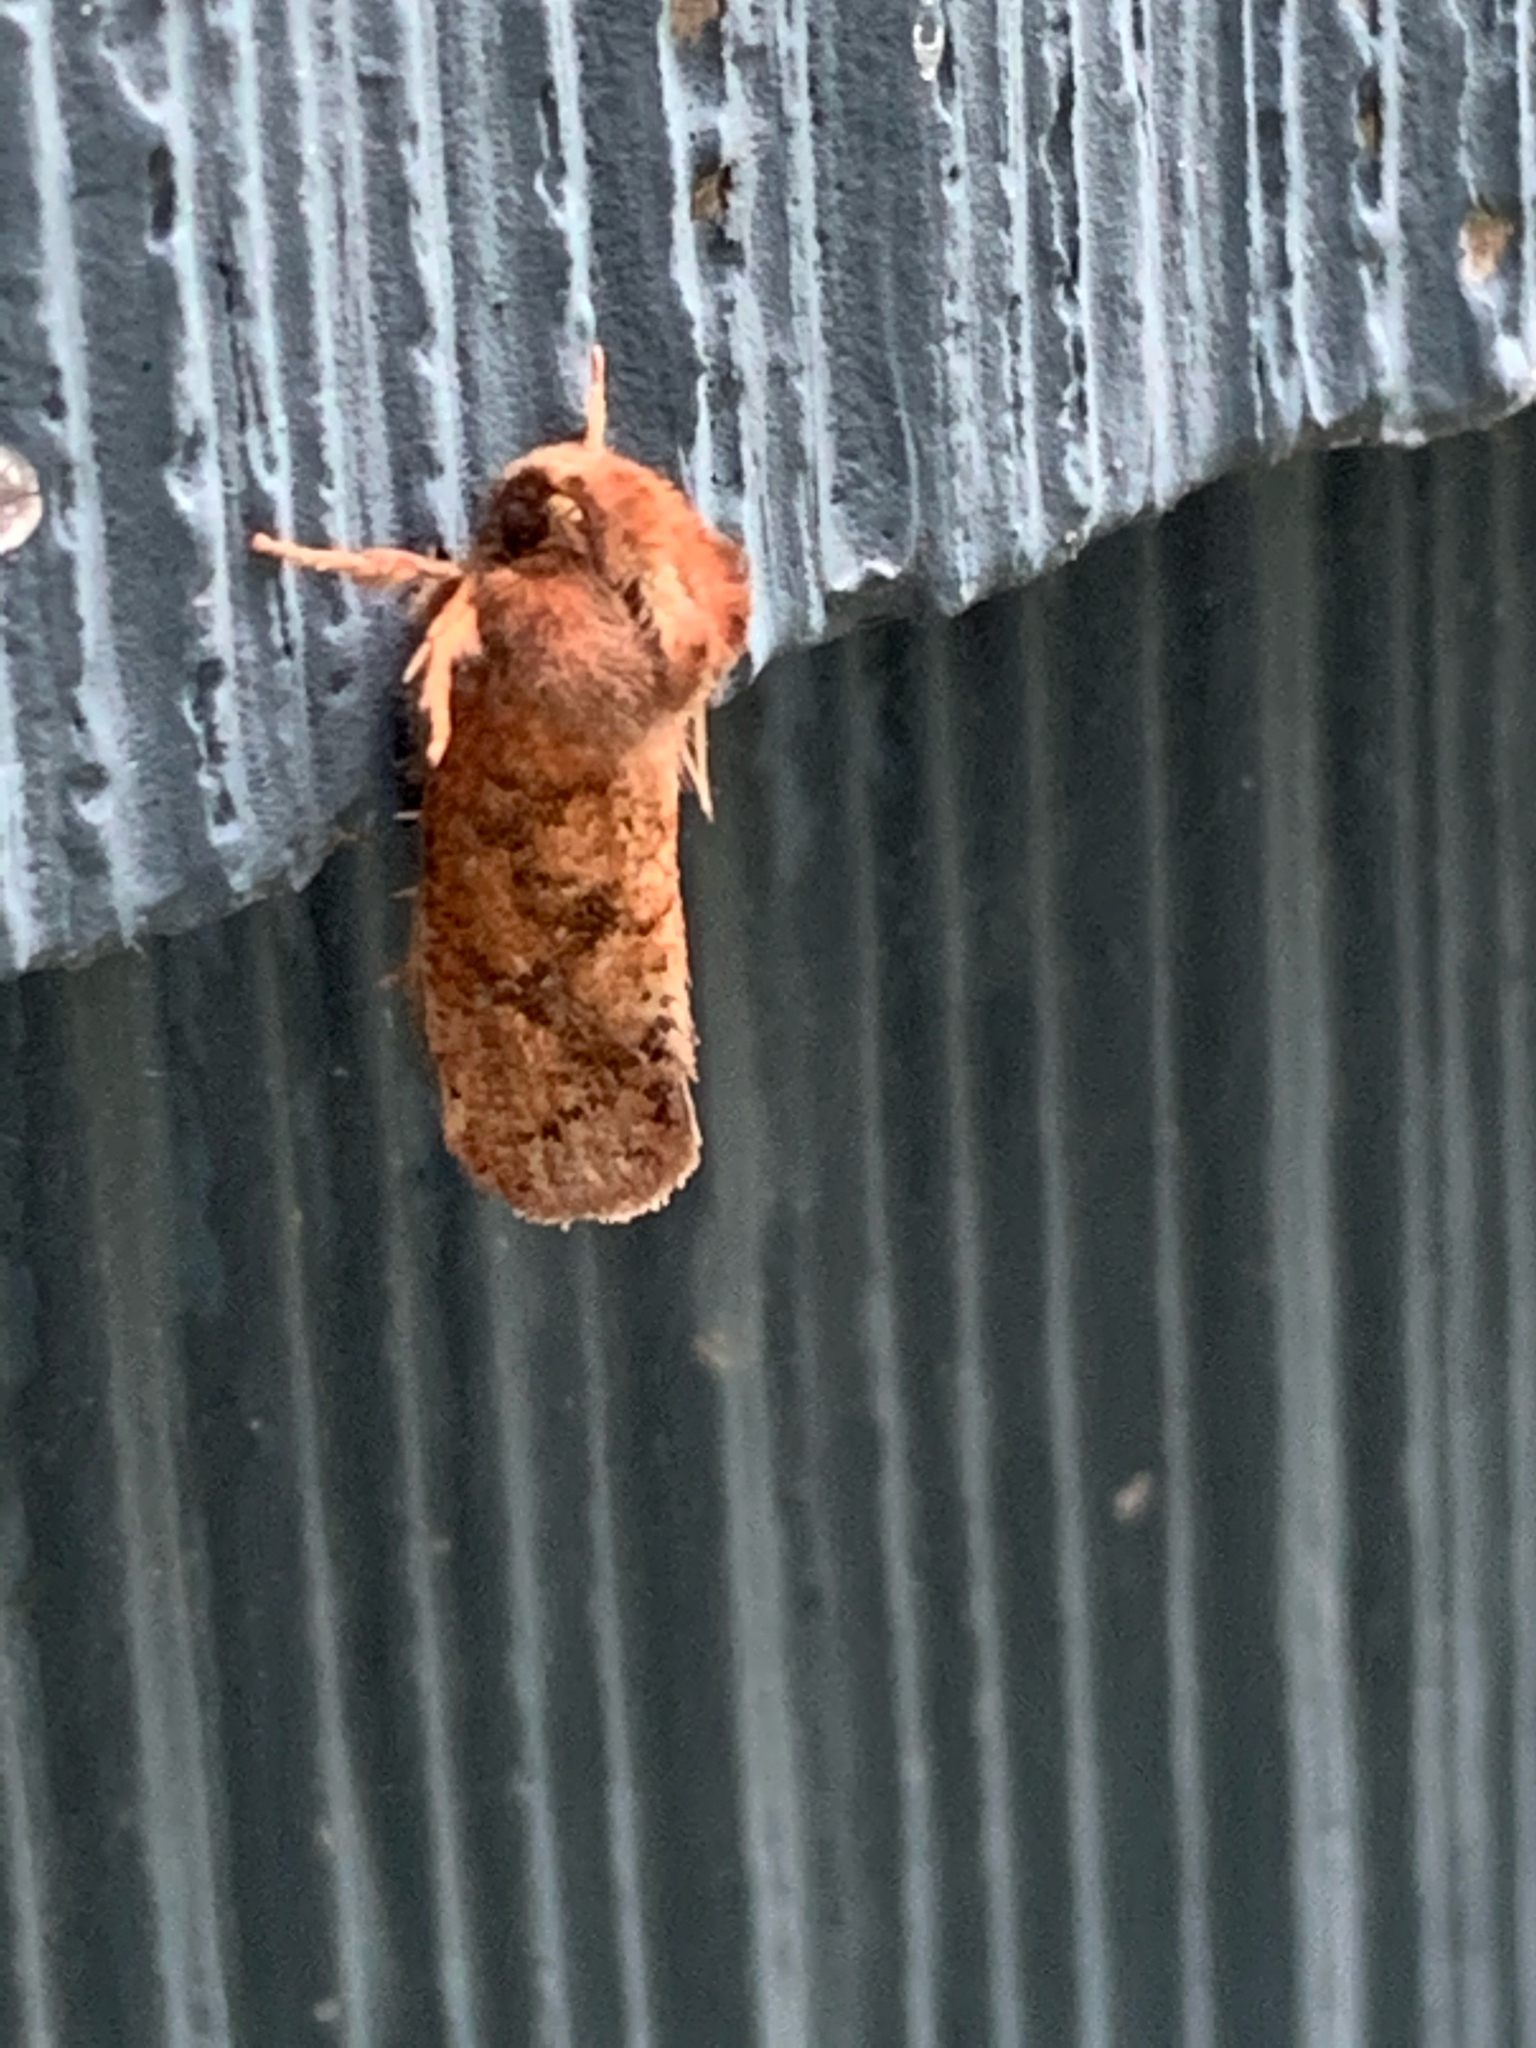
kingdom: Animalia
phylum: Arthropoda
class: Insecta
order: Lepidoptera
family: Tineidae
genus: Acrolophus
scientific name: Acrolophus plumifrontella
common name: Eastern grass tubeworm moth
